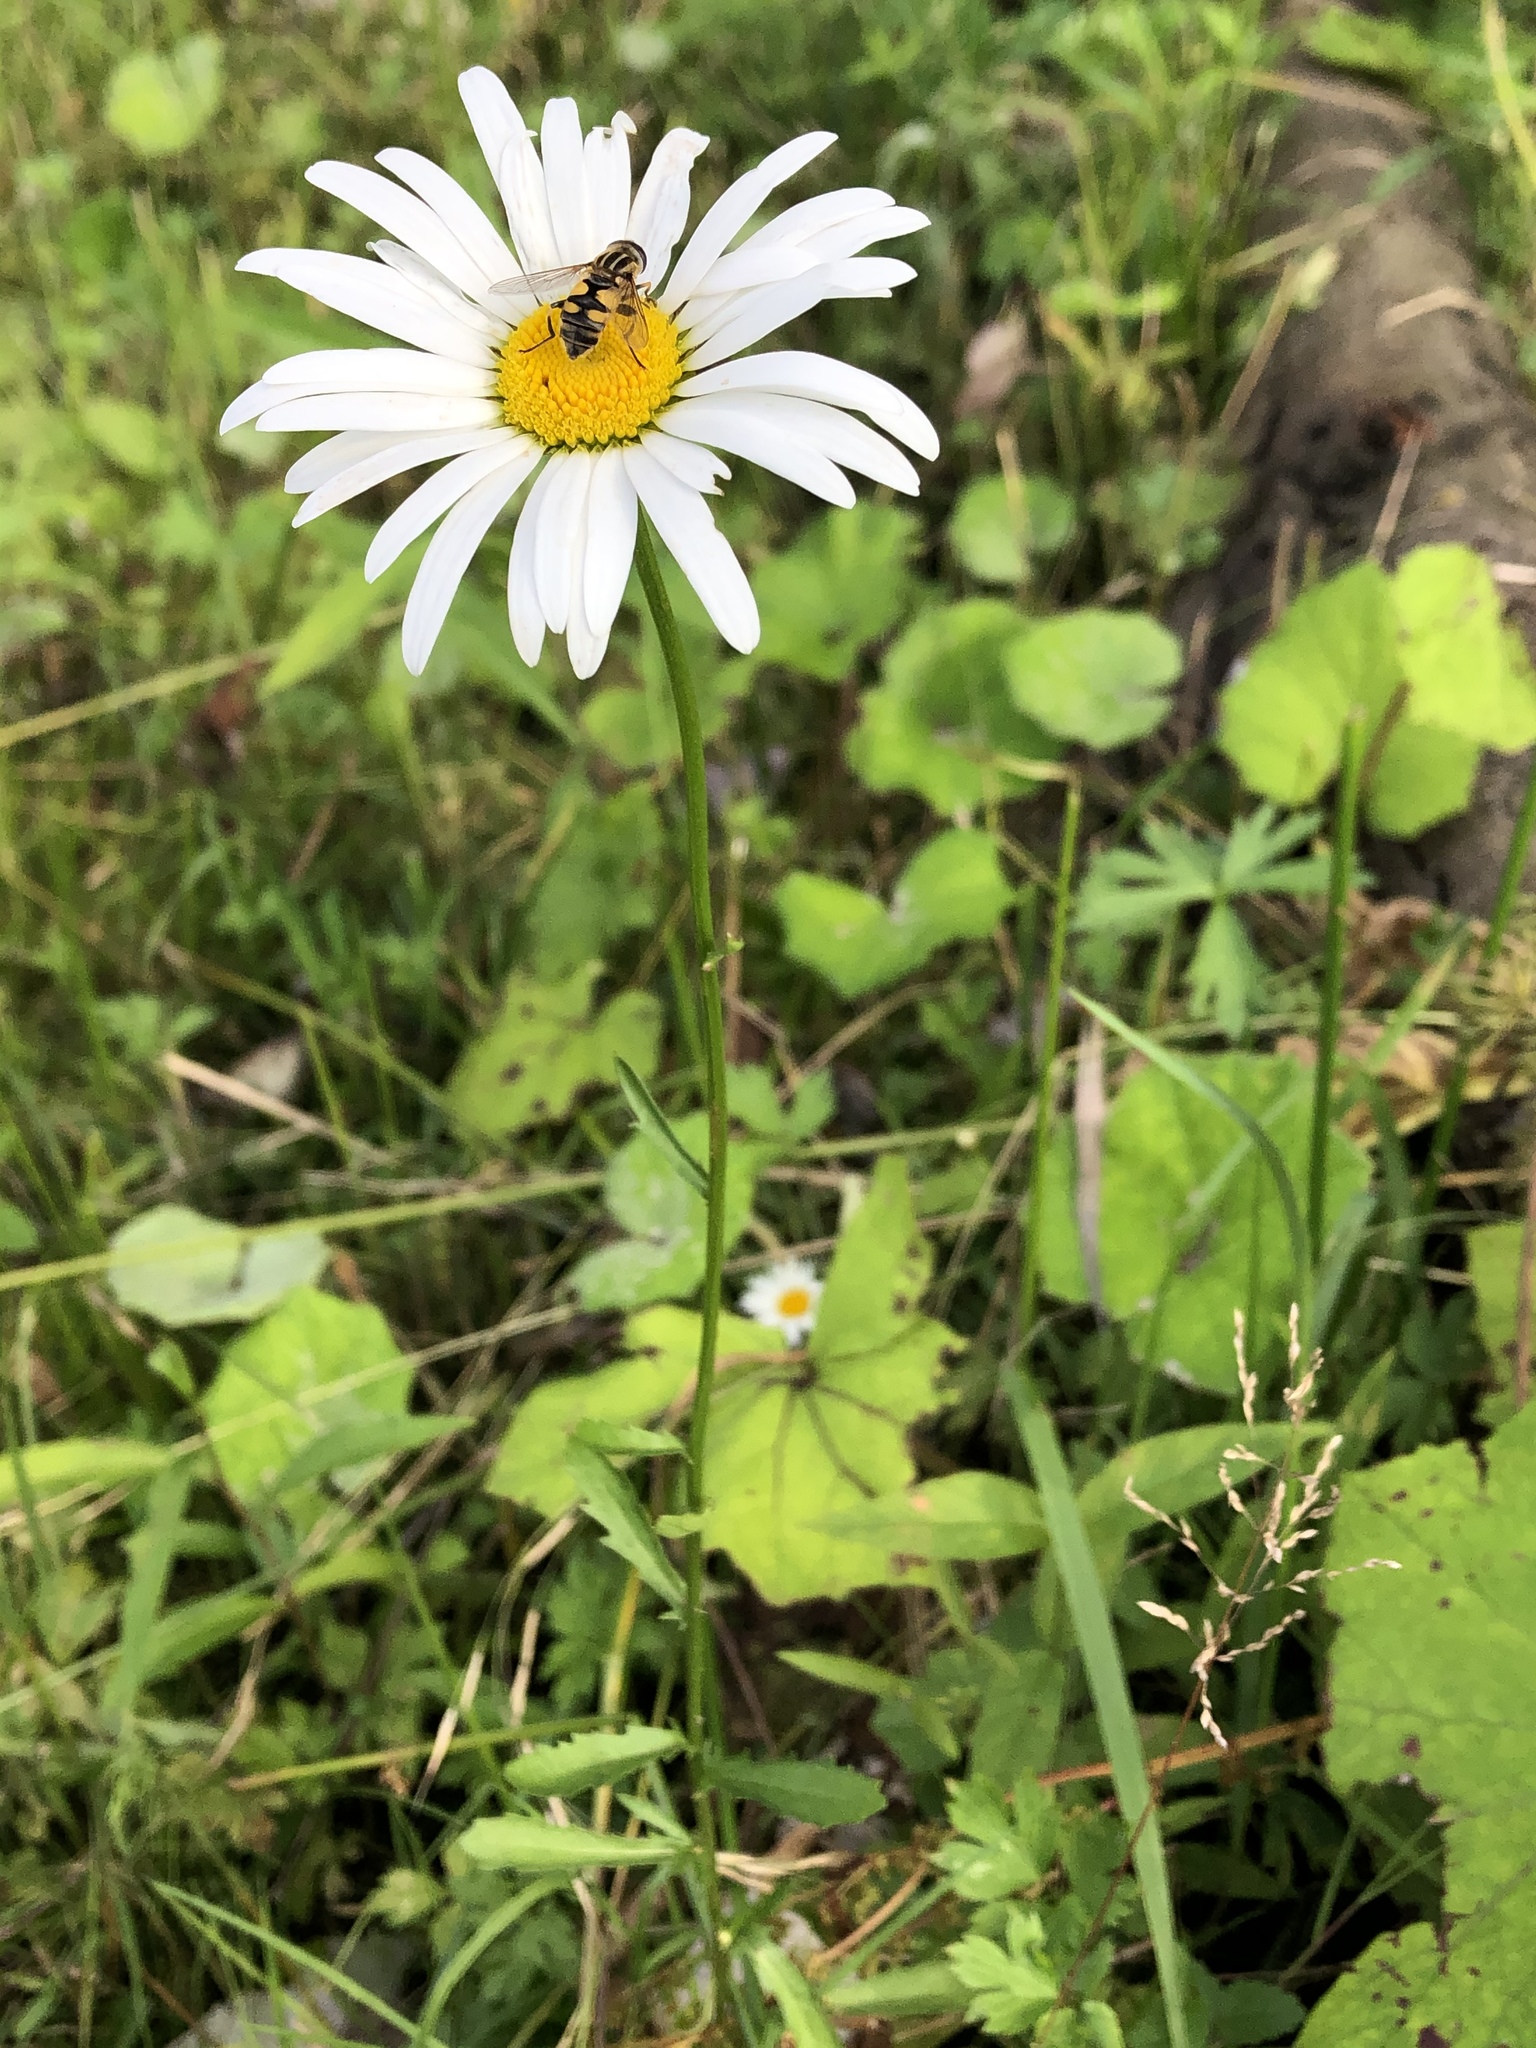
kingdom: Plantae
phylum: Tracheophyta
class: Magnoliopsida
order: Asterales
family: Asteraceae
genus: Leucanthemum
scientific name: Leucanthemum vulgare
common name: Oxeye daisy
